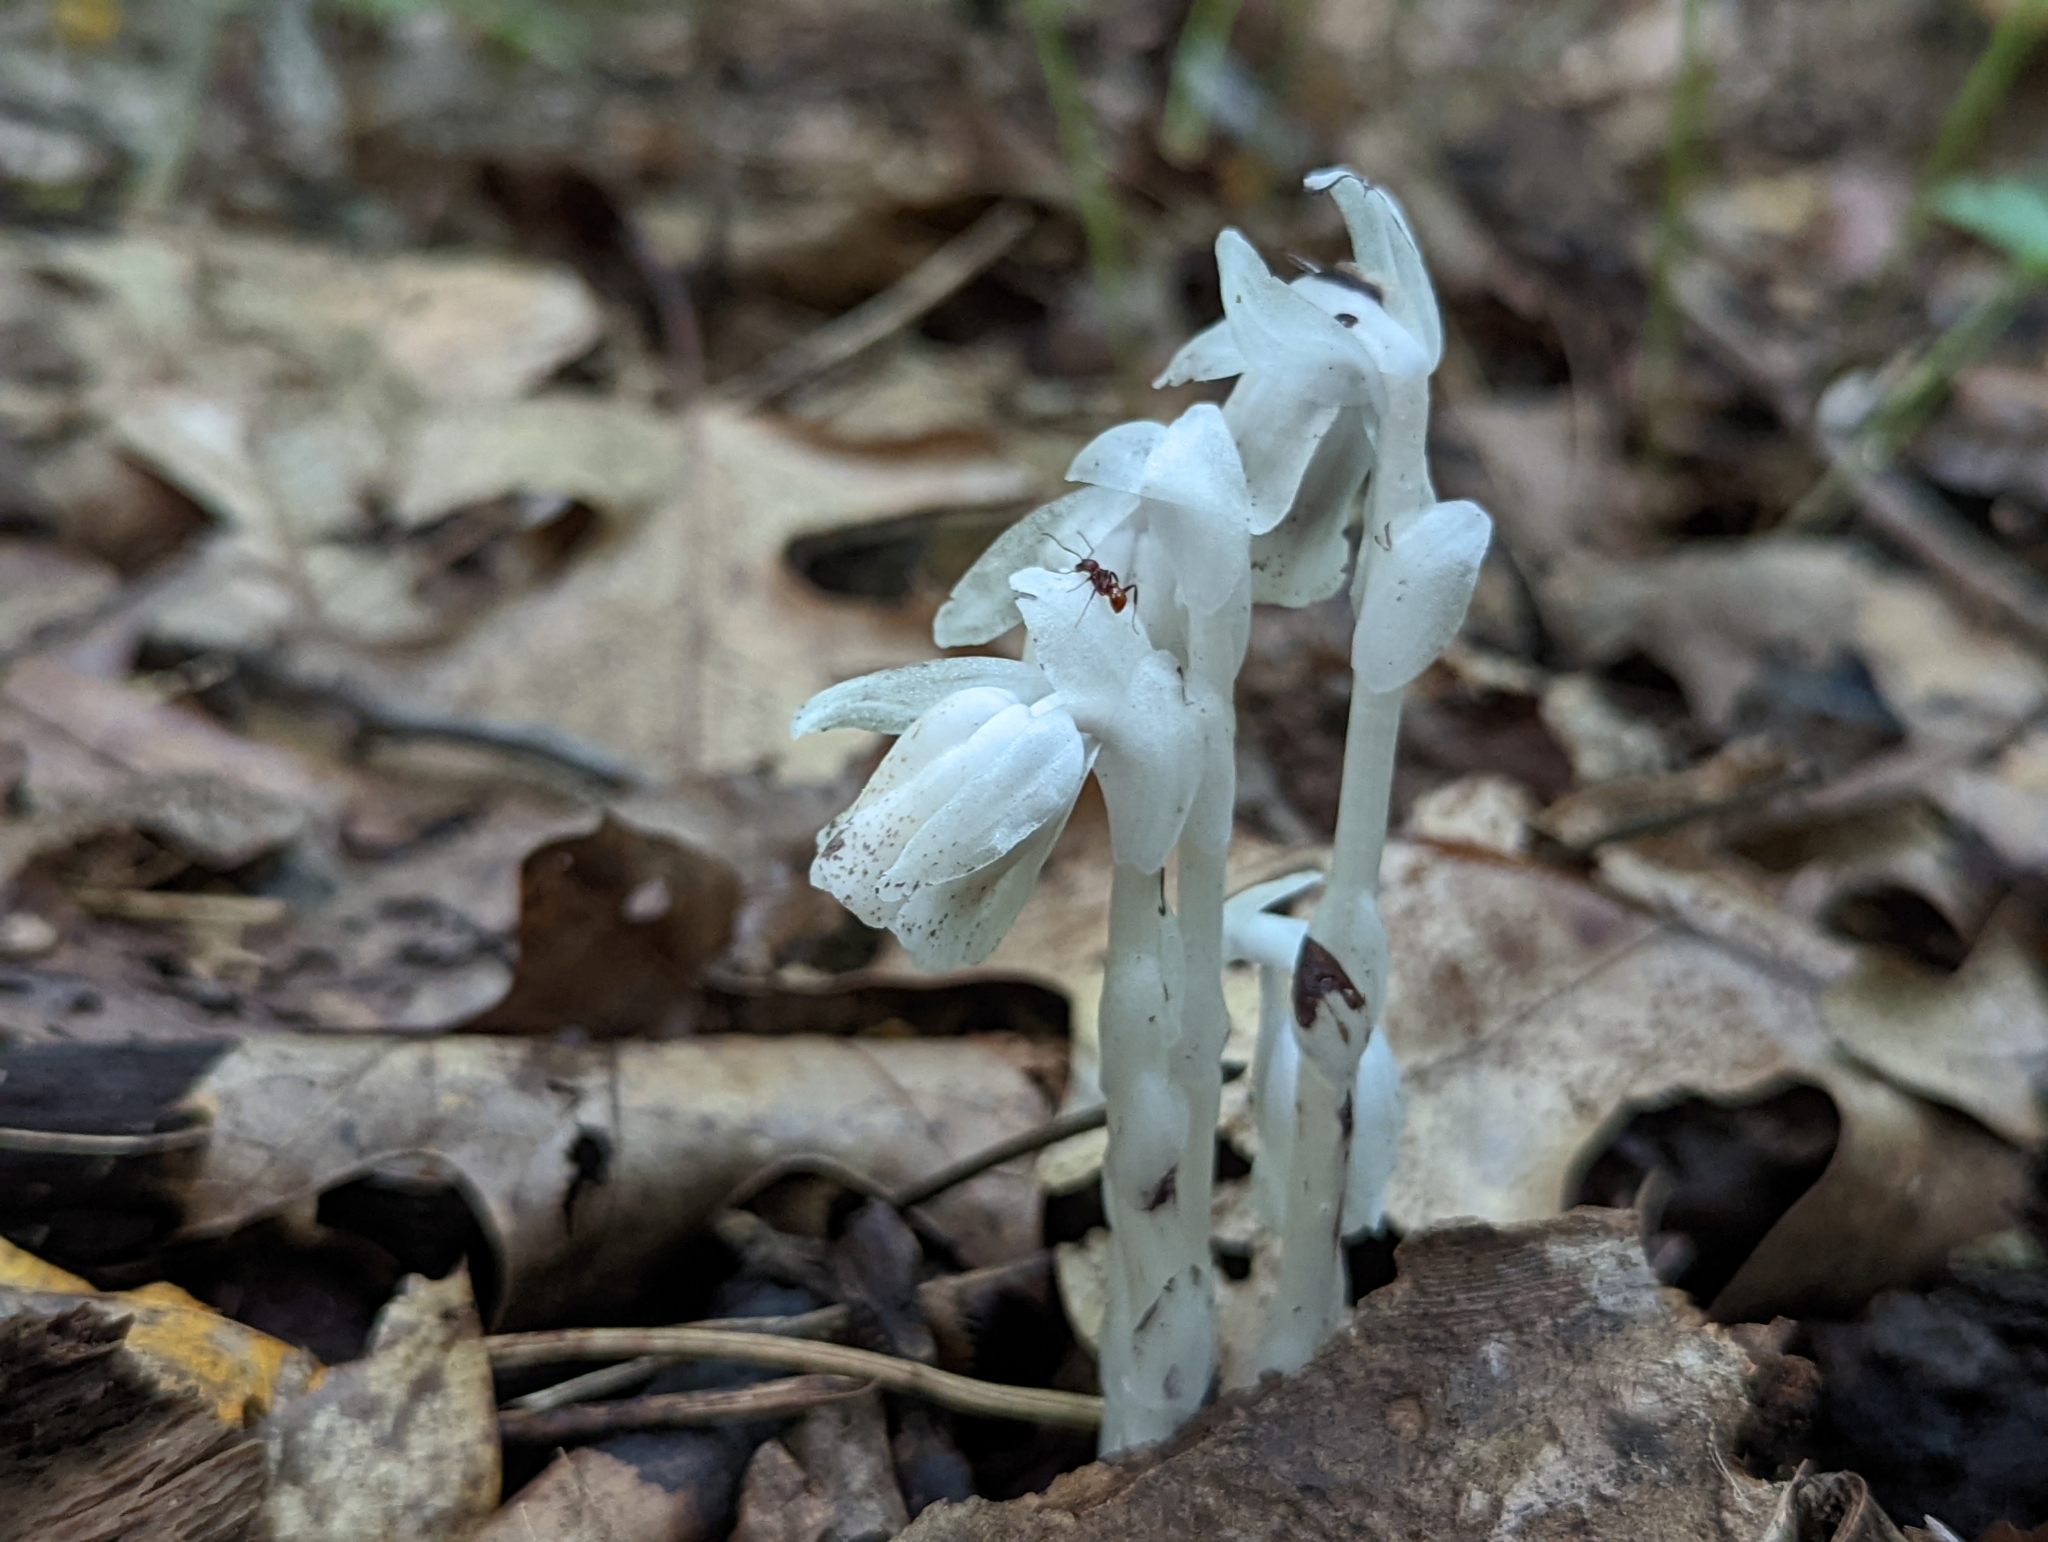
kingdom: Plantae
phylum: Tracheophyta
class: Magnoliopsida
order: Ericales
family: Ericaceae
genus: Monotropa
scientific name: Monotropa uniflora
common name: Convulsion root
